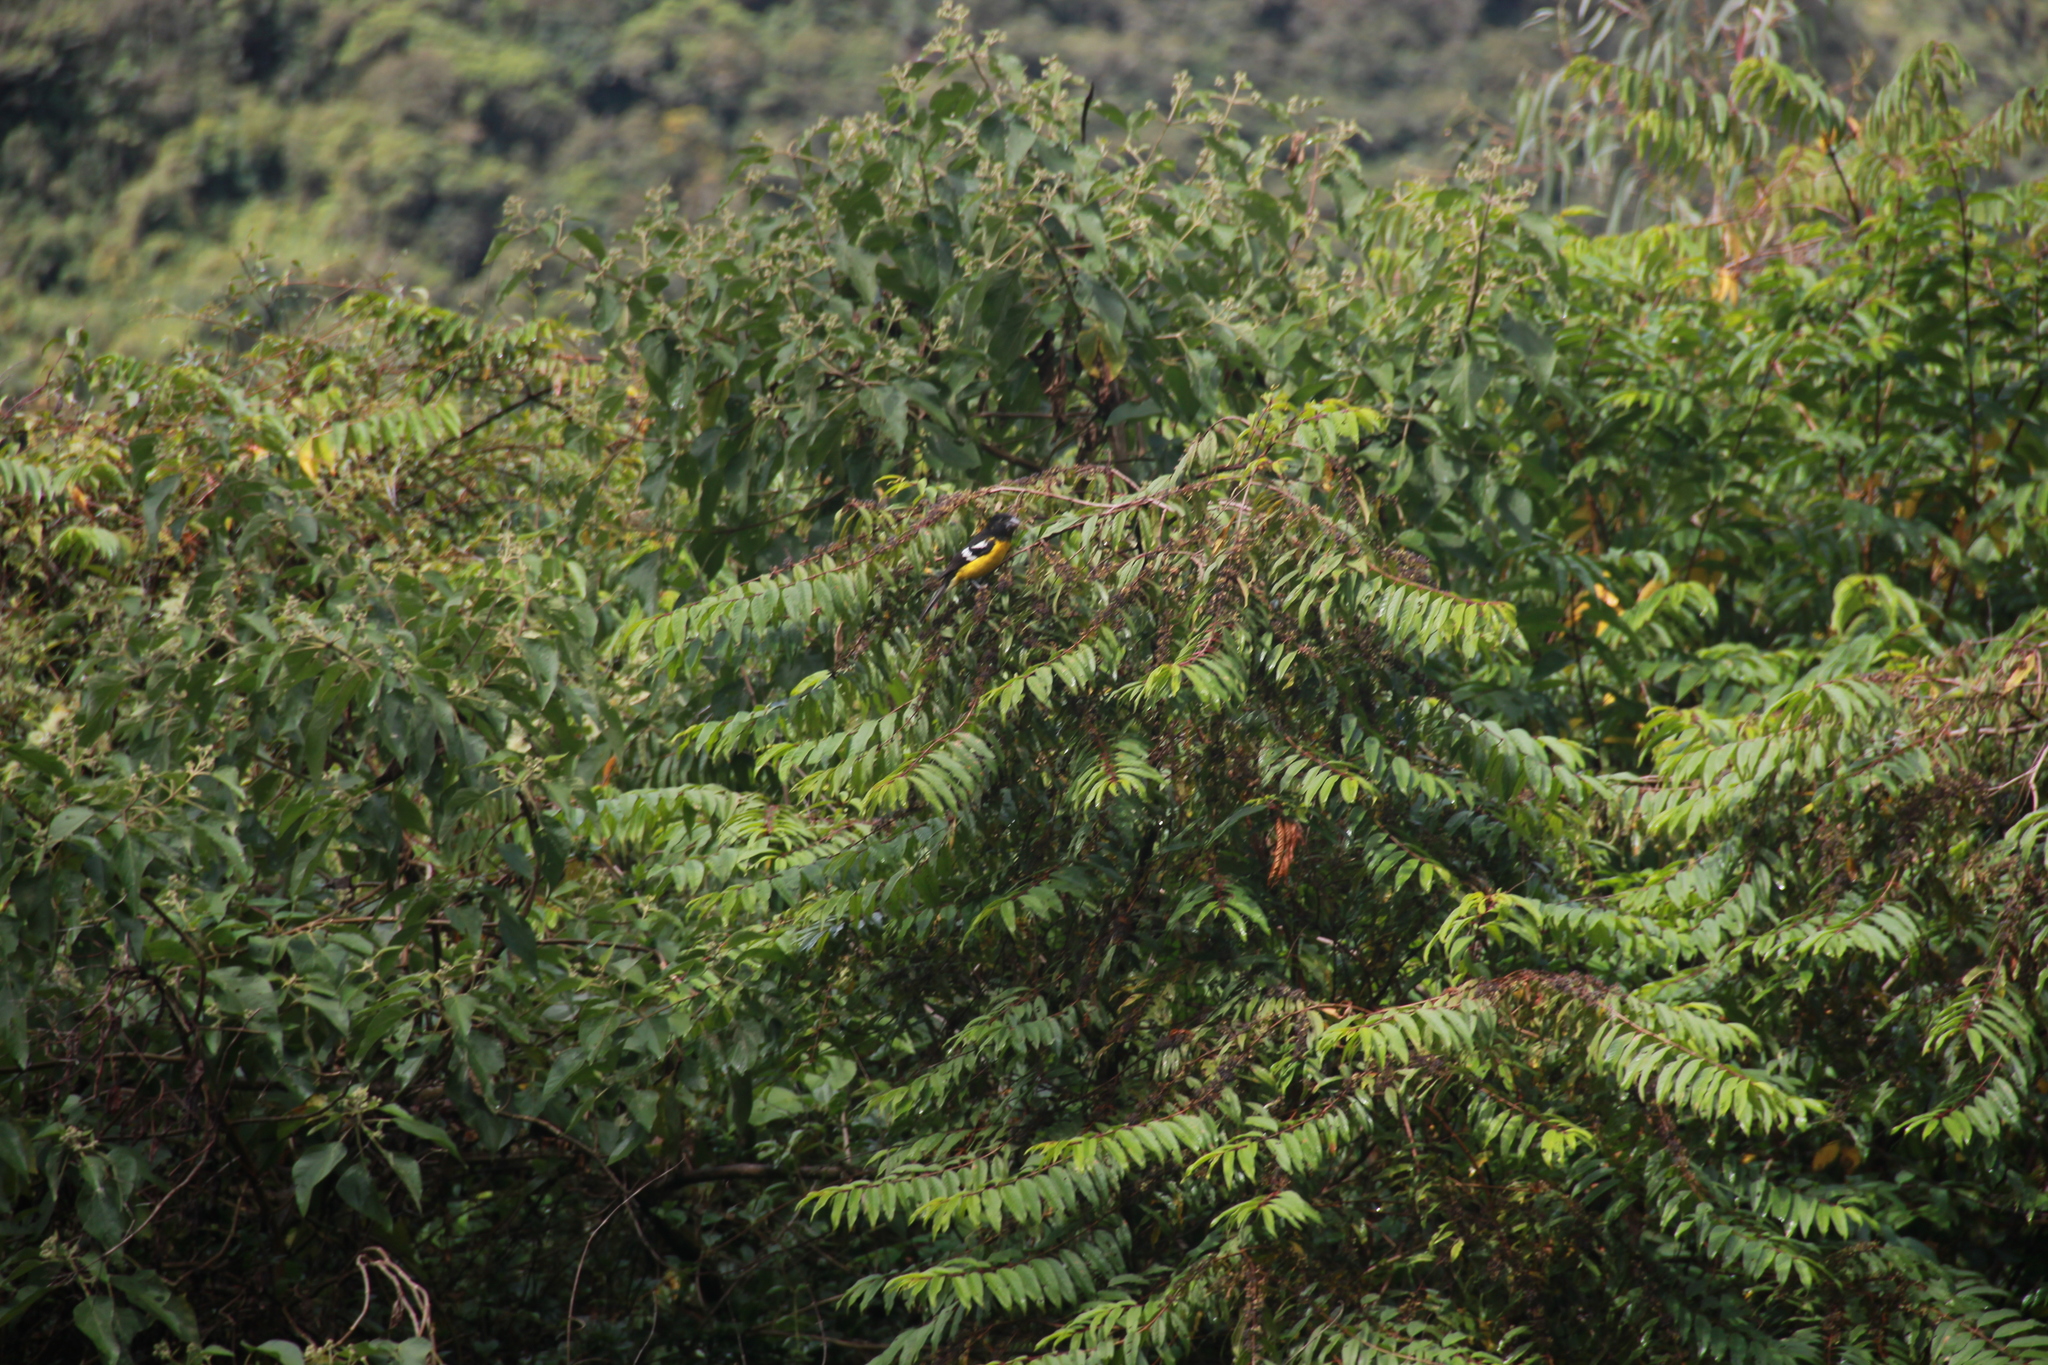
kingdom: Animalia
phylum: Chordata
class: Aves
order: Passeriformes
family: Cardinalidae
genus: Pheucticus
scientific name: Pheucticus aureoventris
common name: Black-backed grosbeak
